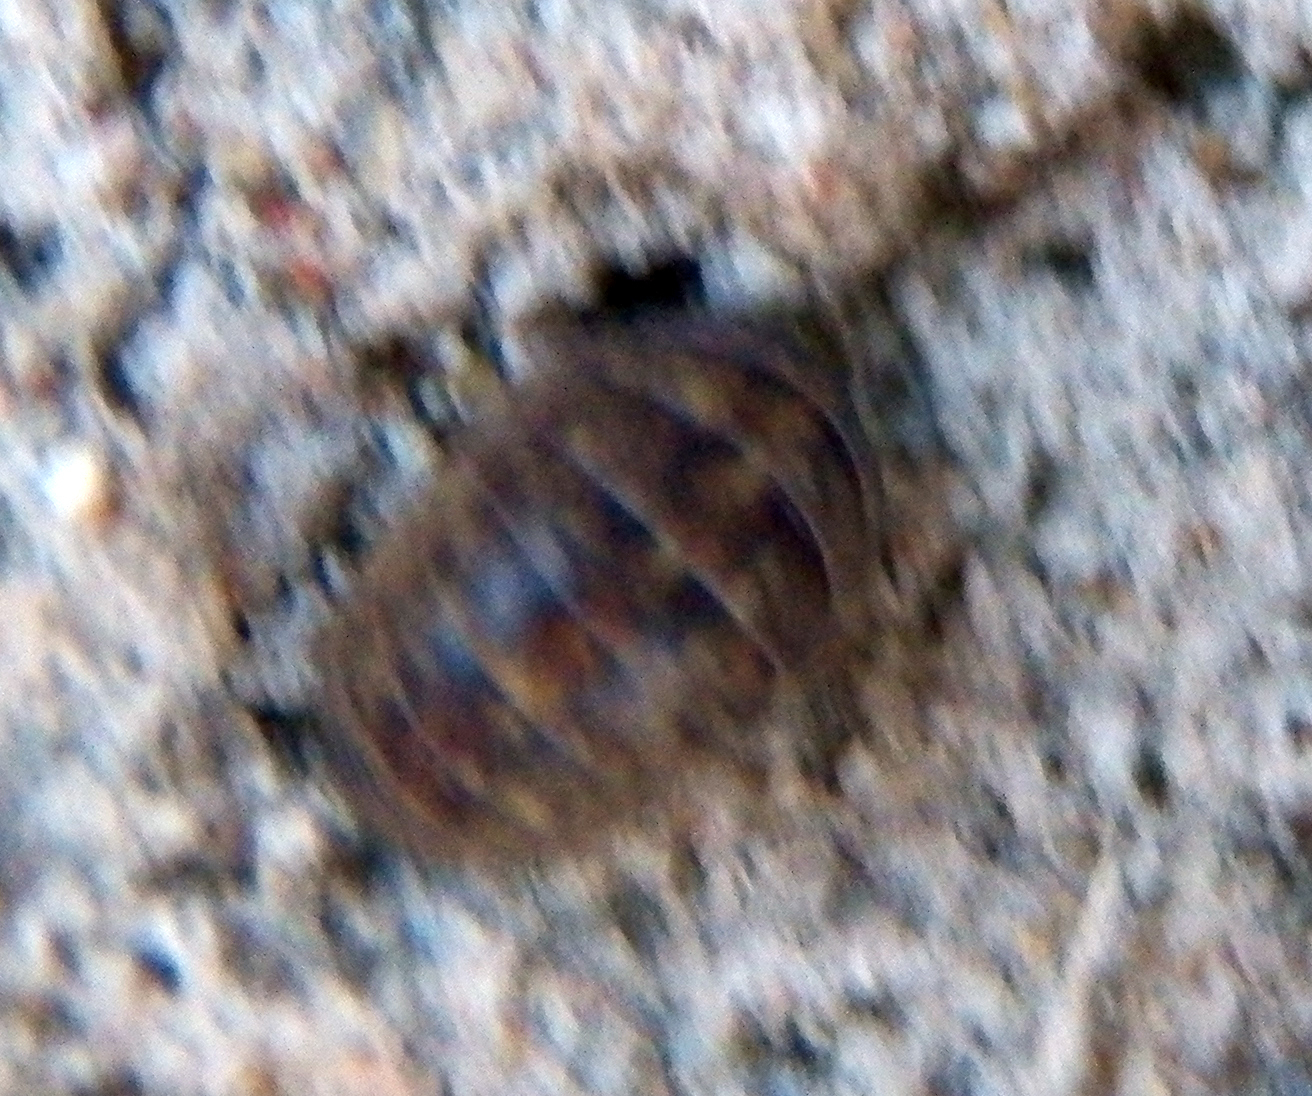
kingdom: Animalia
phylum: Arthropoda
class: Malacostraca
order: Isopoda
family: Armadillidiidae
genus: Armadillidium
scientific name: Armadillidium vulgare
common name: Common pill woodlouse
